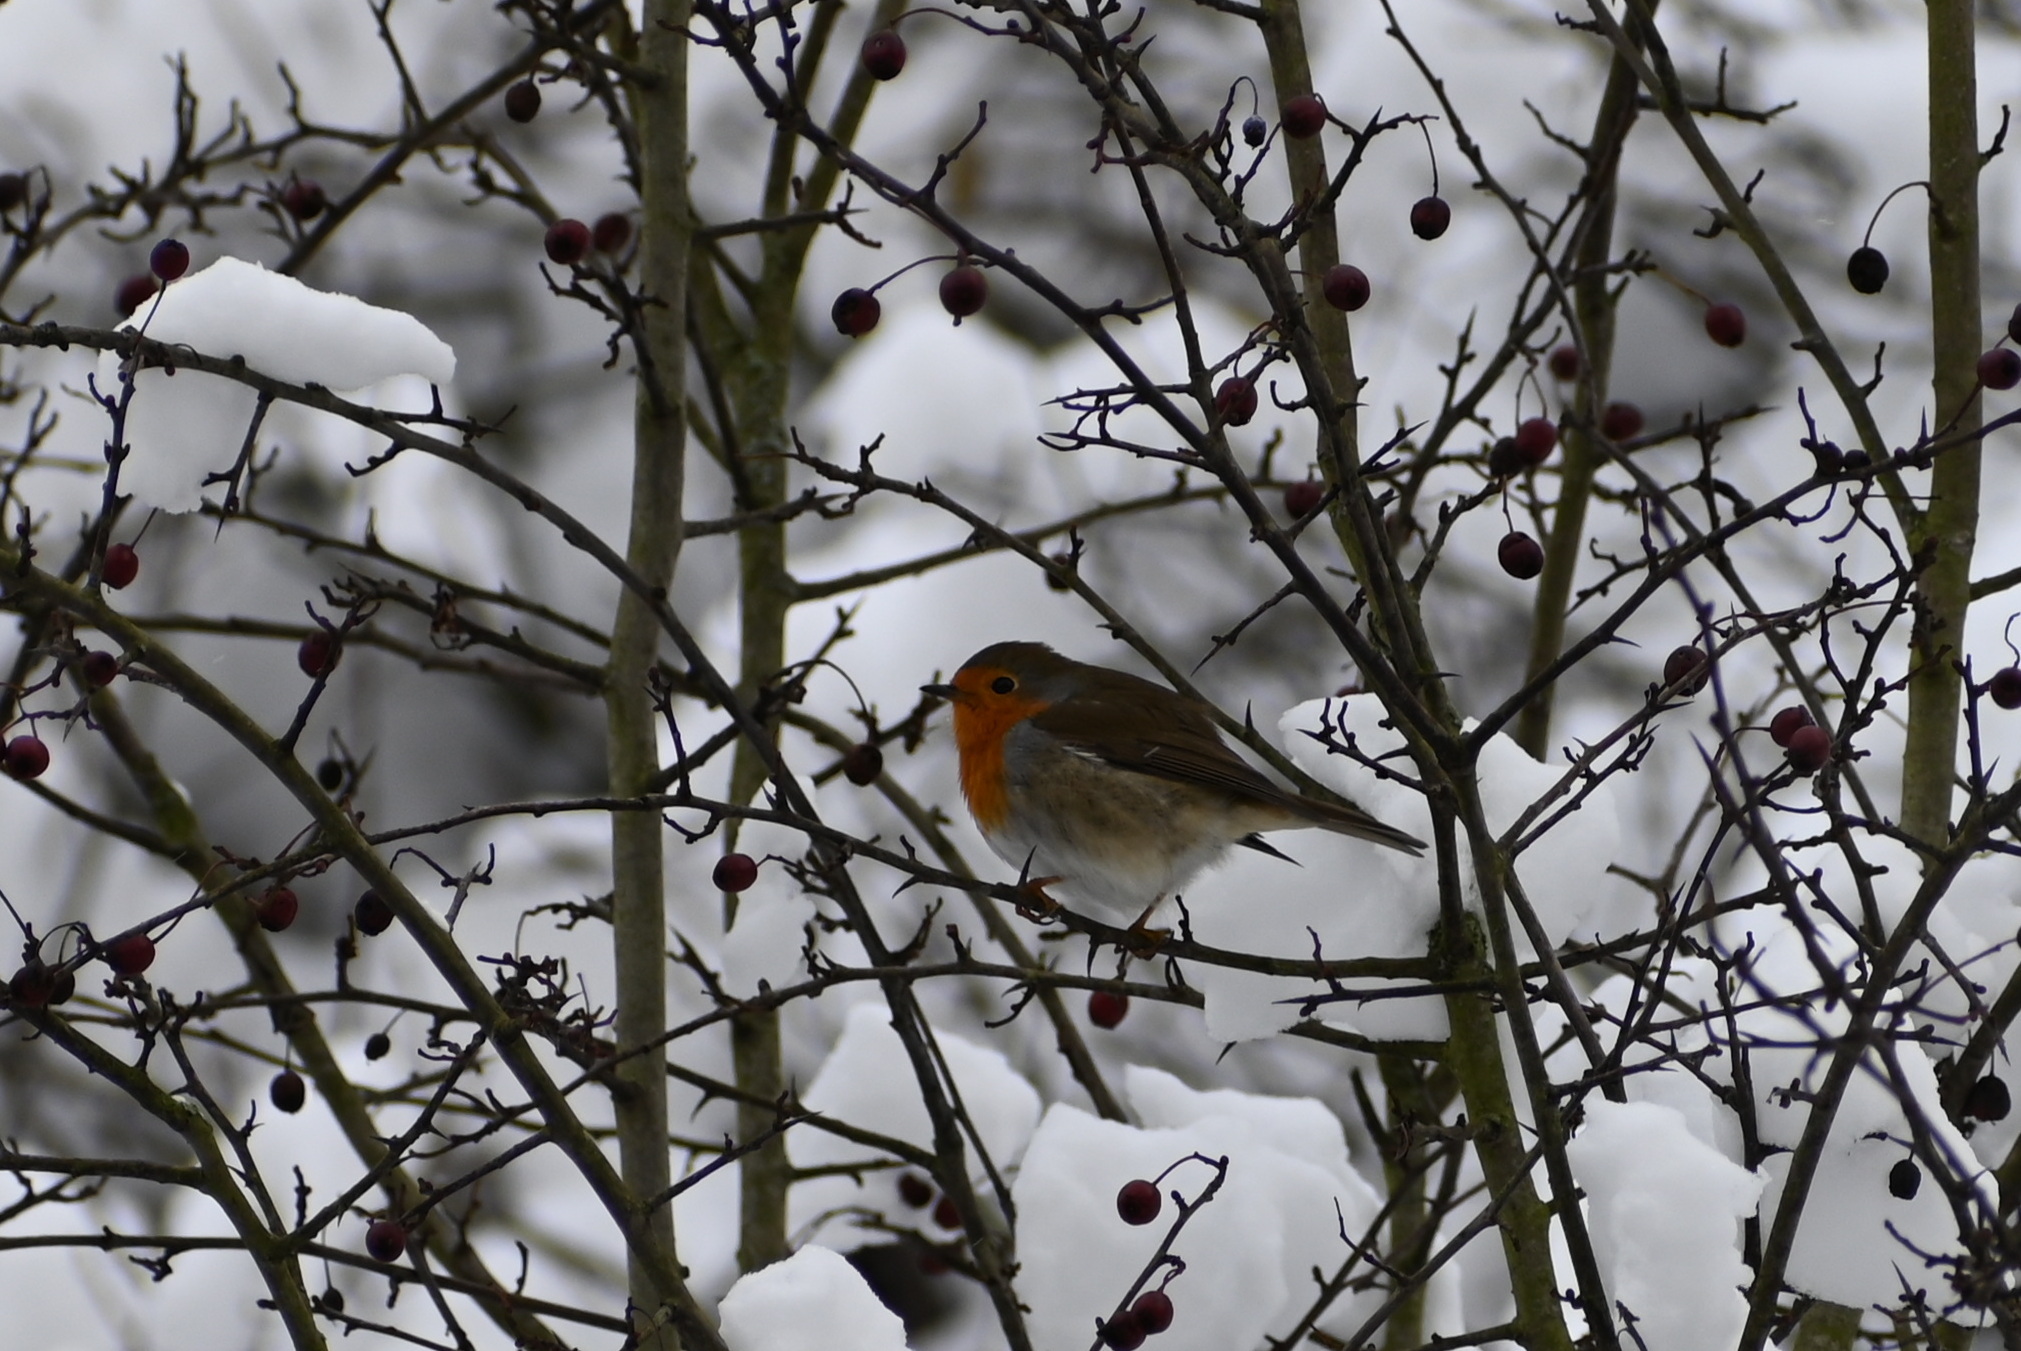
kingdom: Animalia
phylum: Chordata
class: Aves
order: Passeriformes
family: Muscicapidae
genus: Erithacus
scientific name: Erithacus rubecula
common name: European robin
